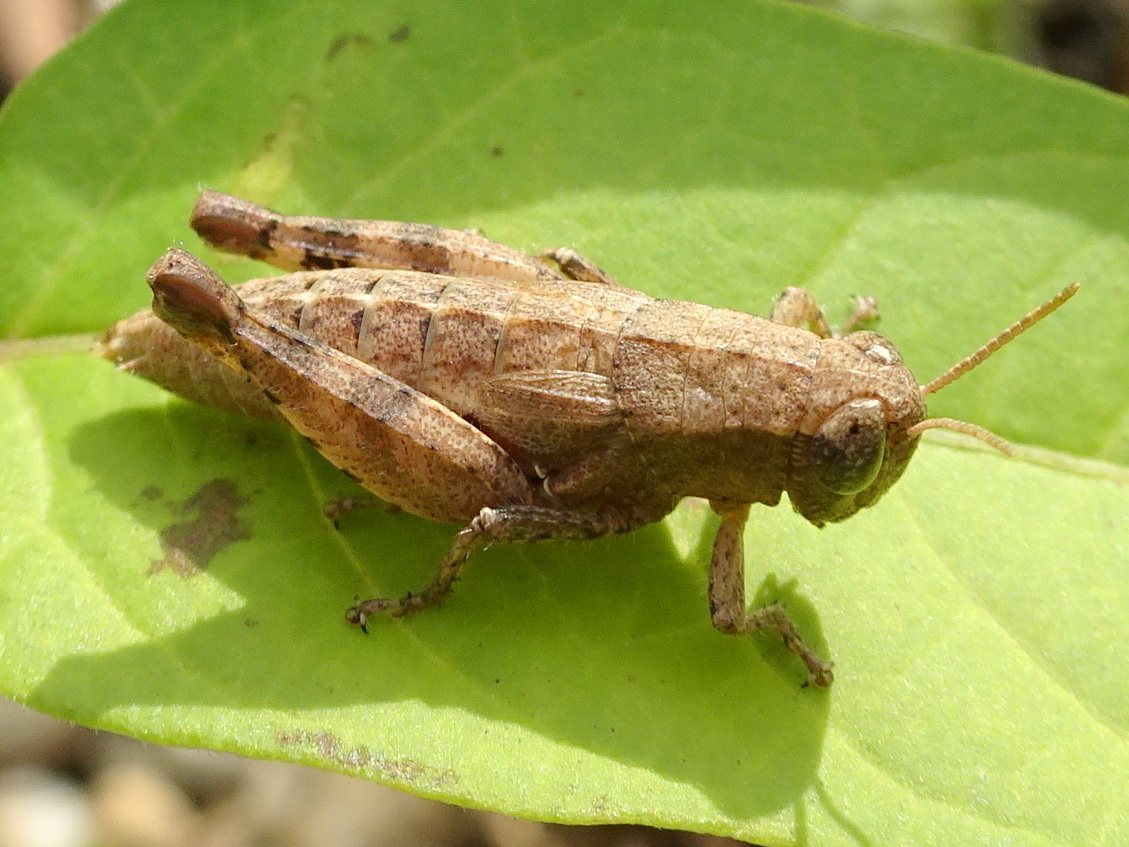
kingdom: Animalia
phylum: Arthropoda
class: Insecta
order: Orthoptera
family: Acrididae
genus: Pezotettix
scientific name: Pezotettix giornae
